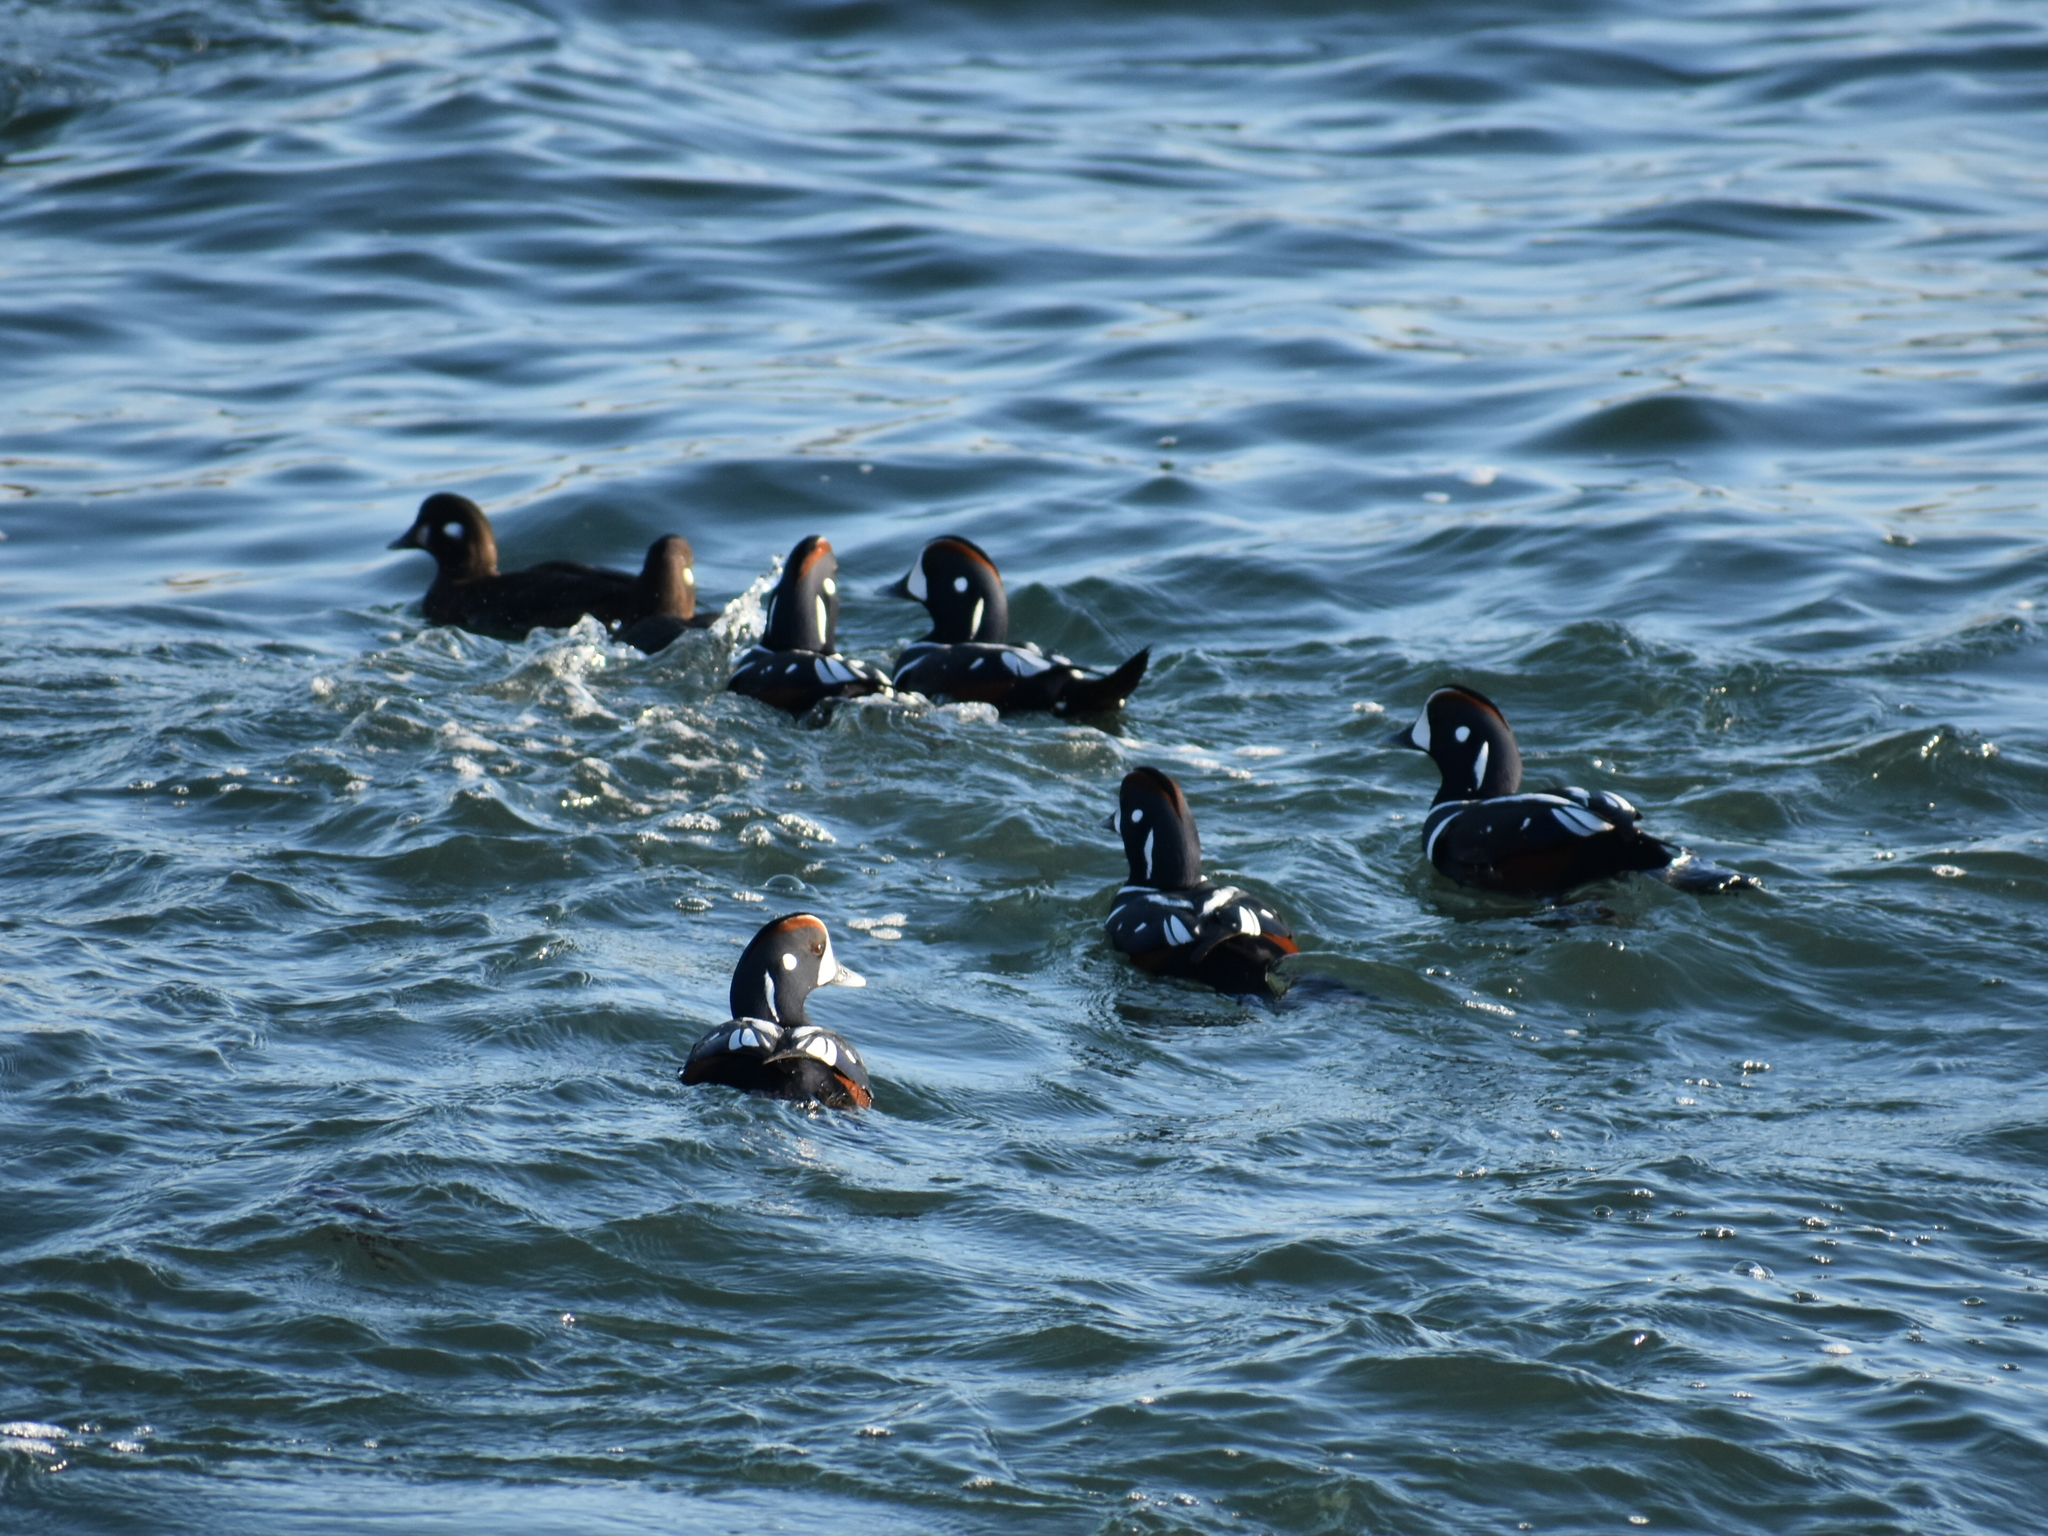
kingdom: Animalia
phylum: Chordata
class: Aves
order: Anseriformes
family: Anatidae
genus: Histrionicus
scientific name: Histrionicus histrionicus
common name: Harlequin duck
